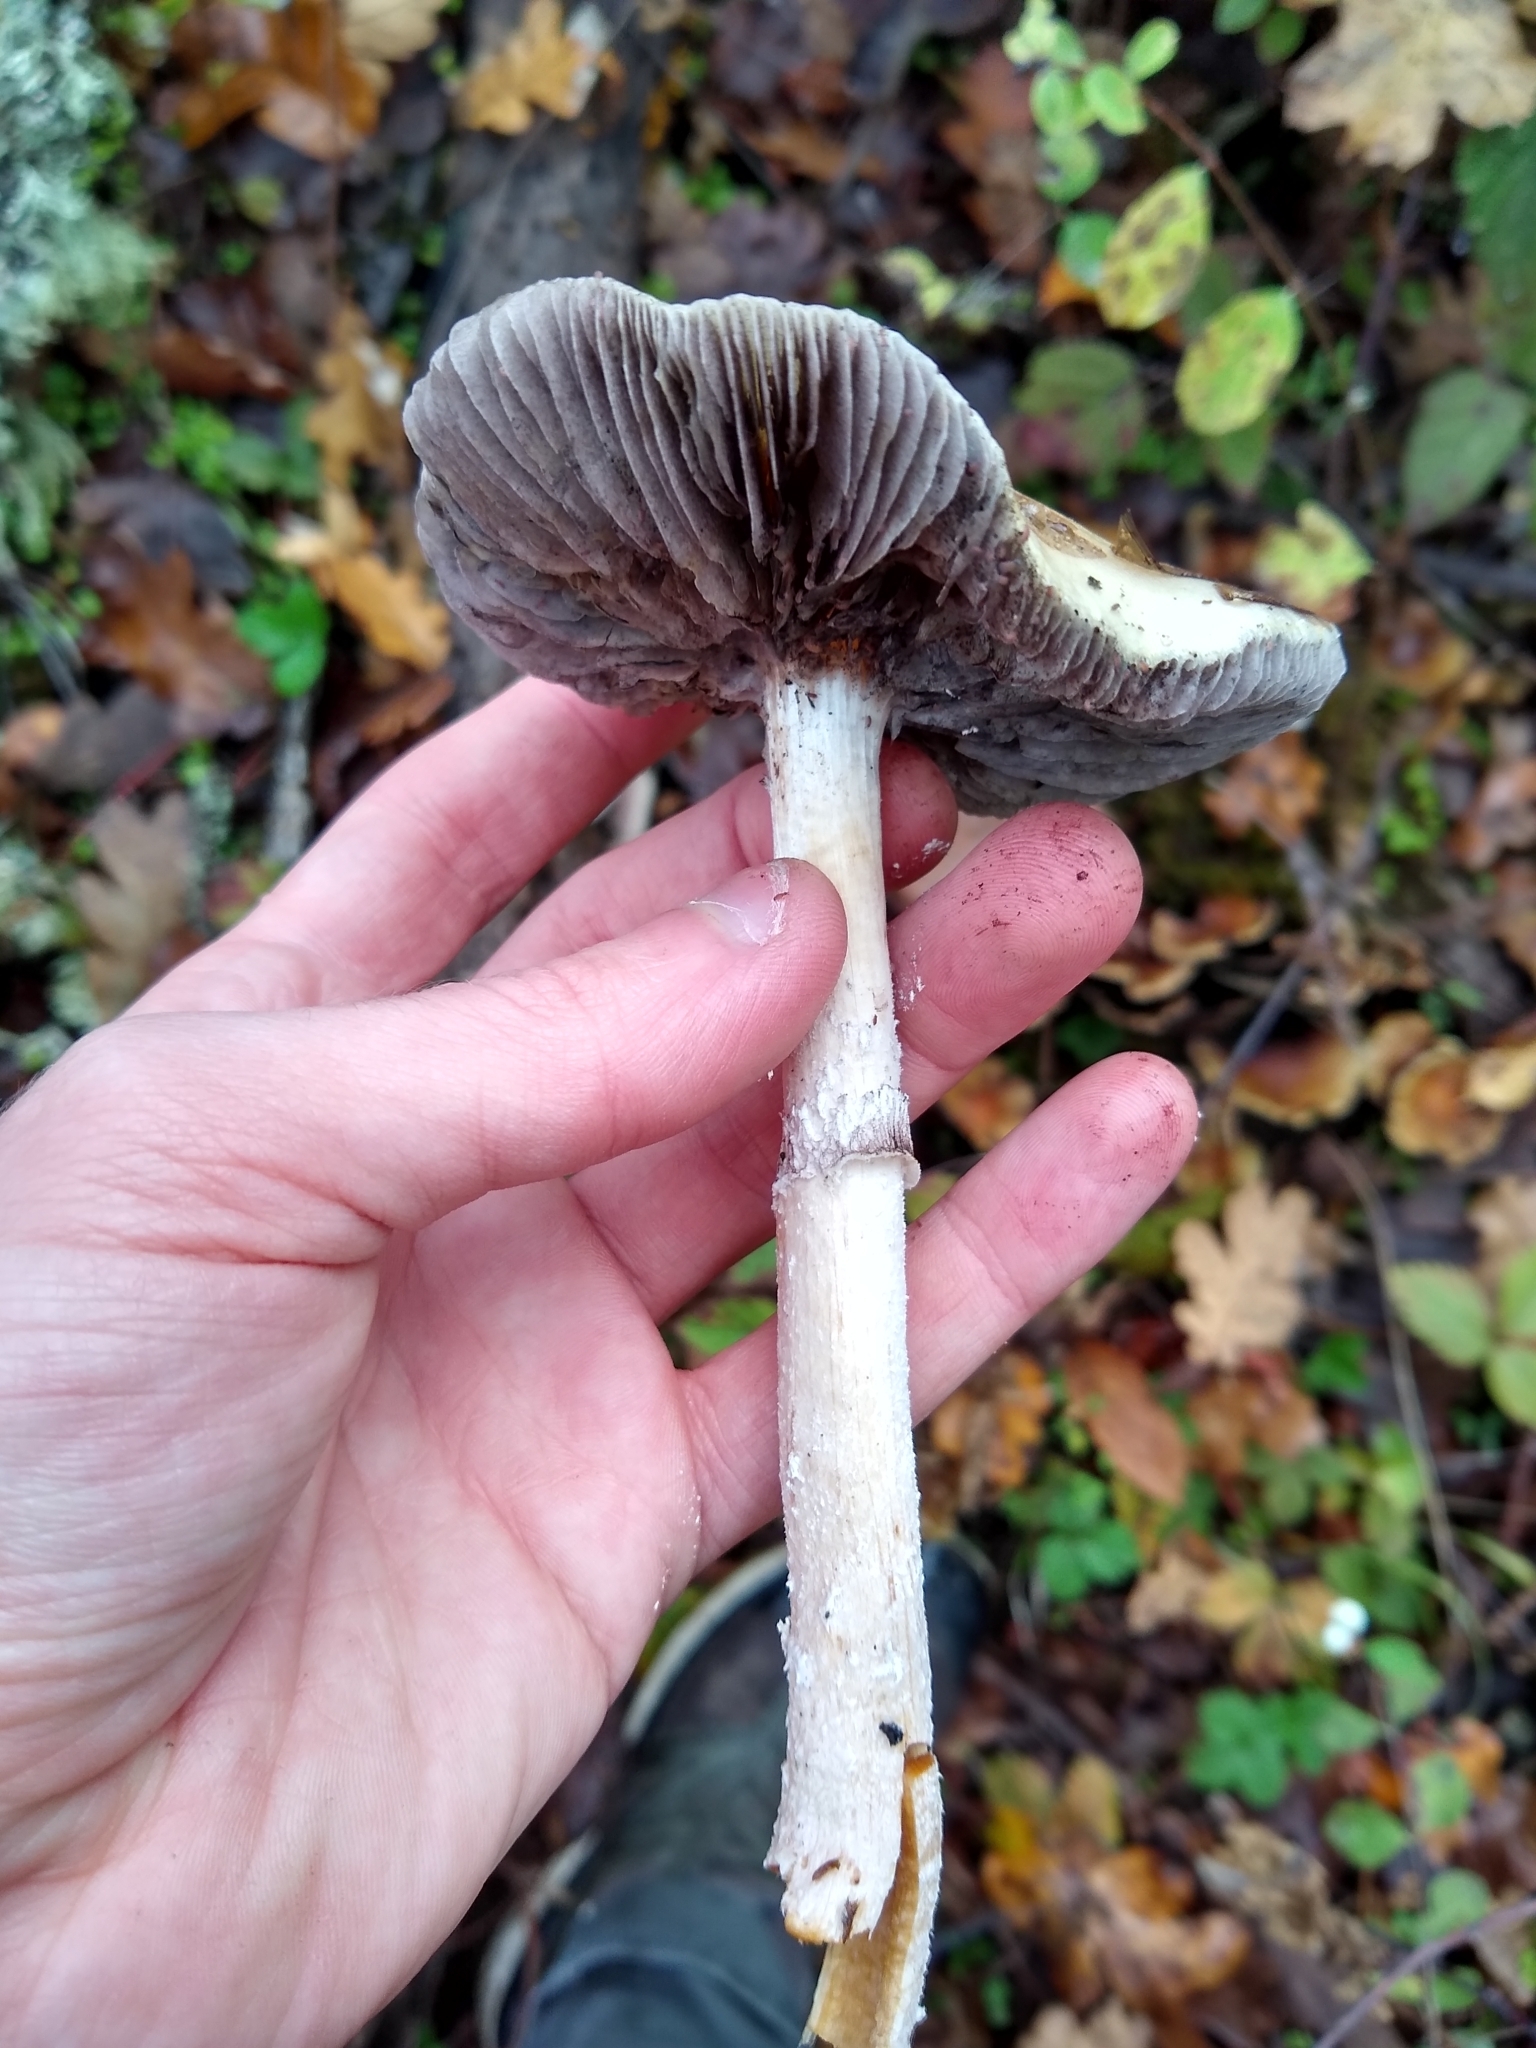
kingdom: Fungi
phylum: Basidiomycota
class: Agaricomycetes
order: Agaricales
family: Strophariaceae
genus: Stropharia
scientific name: Stropharia ambigua
